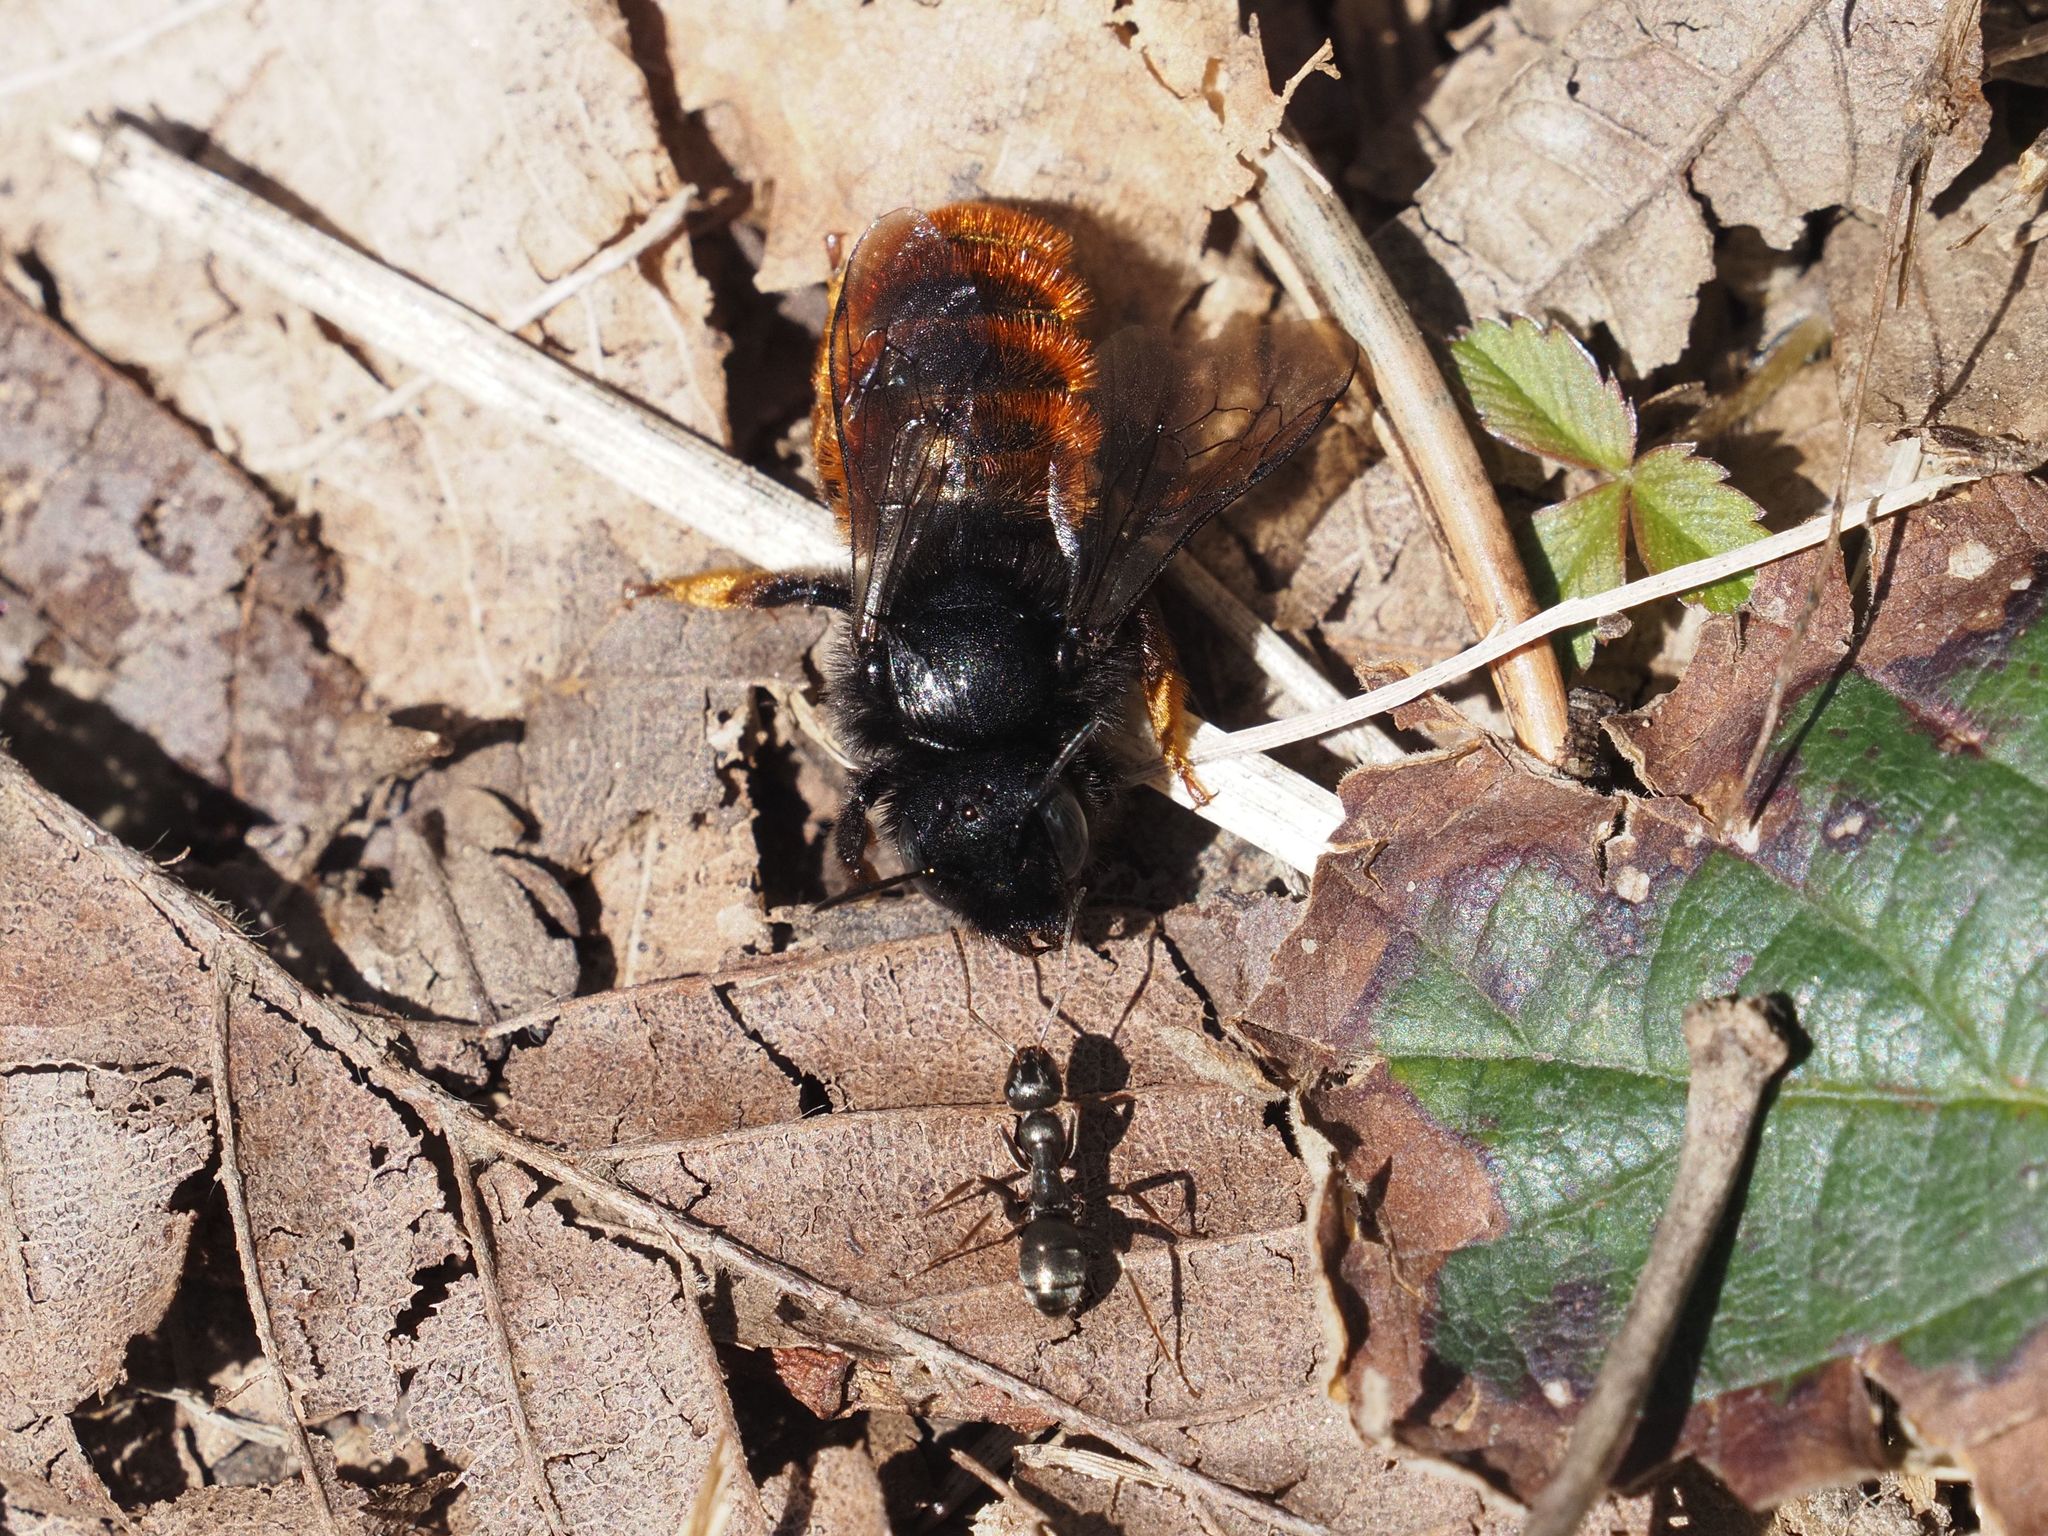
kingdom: Animalia
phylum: Arthropoda
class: Insecta
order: Hymenoptera
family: Megachilidae
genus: Osmia
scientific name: Osmia bicolor
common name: Red-tailed mason bee
